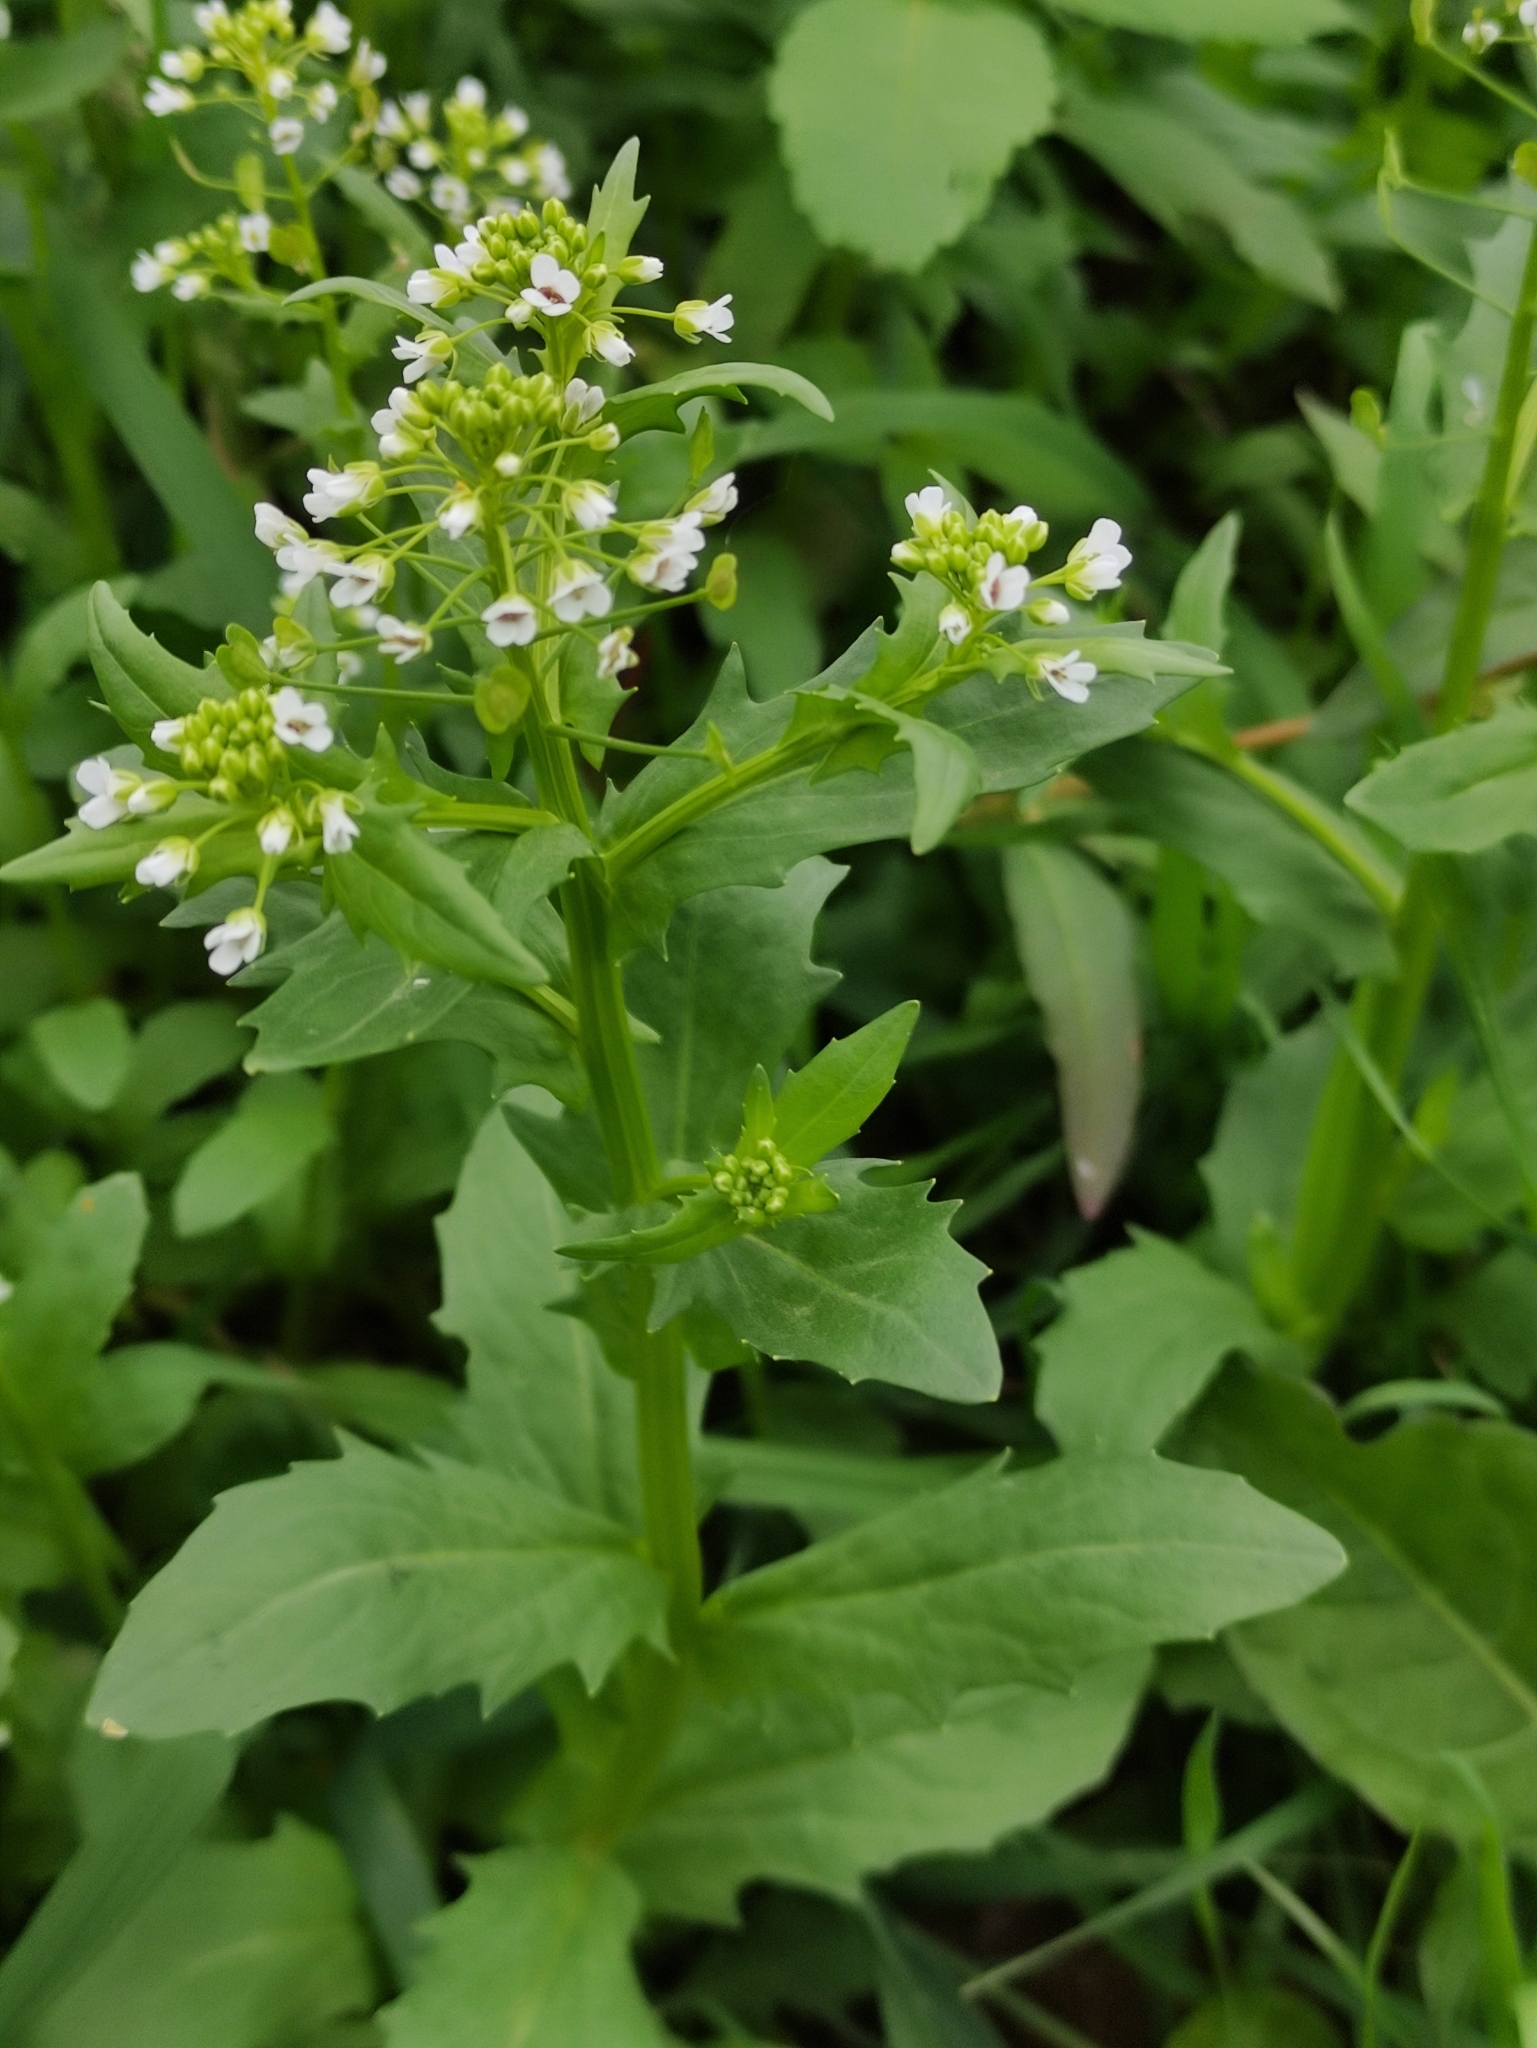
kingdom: Plantae
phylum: Tracheophyta
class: Magnoliopsida
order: Brassicales
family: Brassicaceae
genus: Thlaspi
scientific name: Thlaspi arvense
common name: Field pennycress
